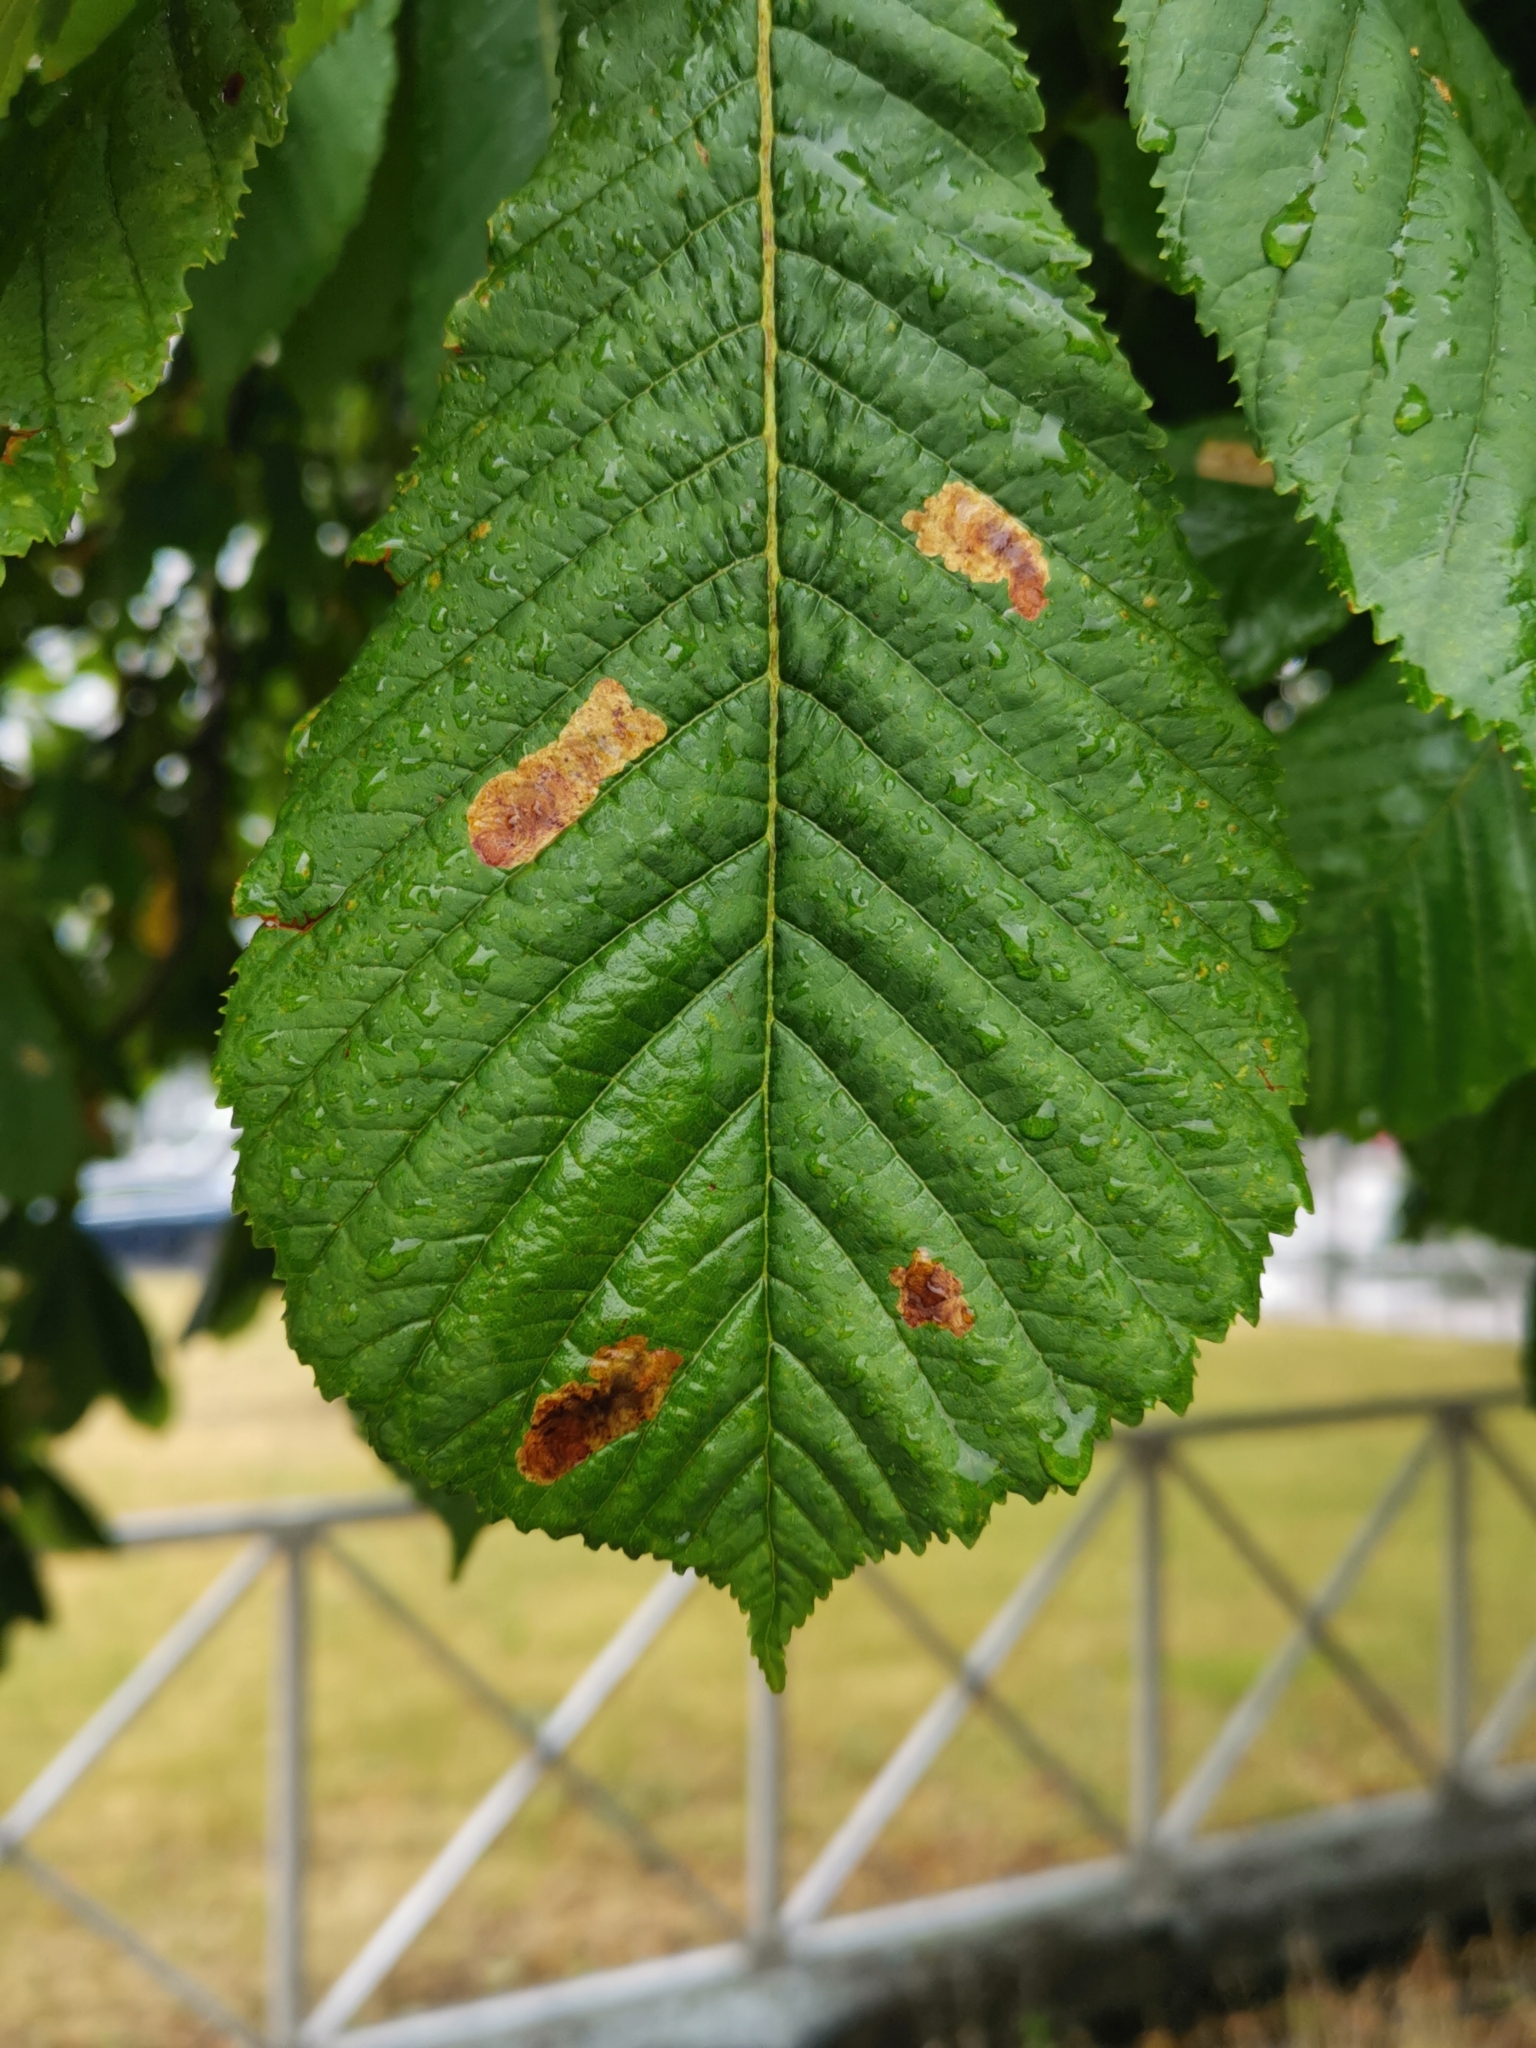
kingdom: Animalia
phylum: Arthropoda
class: Insecta
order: Lepidoptera
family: Gracillariidae
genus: Cameraria
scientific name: Cameraria ohridella
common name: Horse-chestnut leaf-miner
